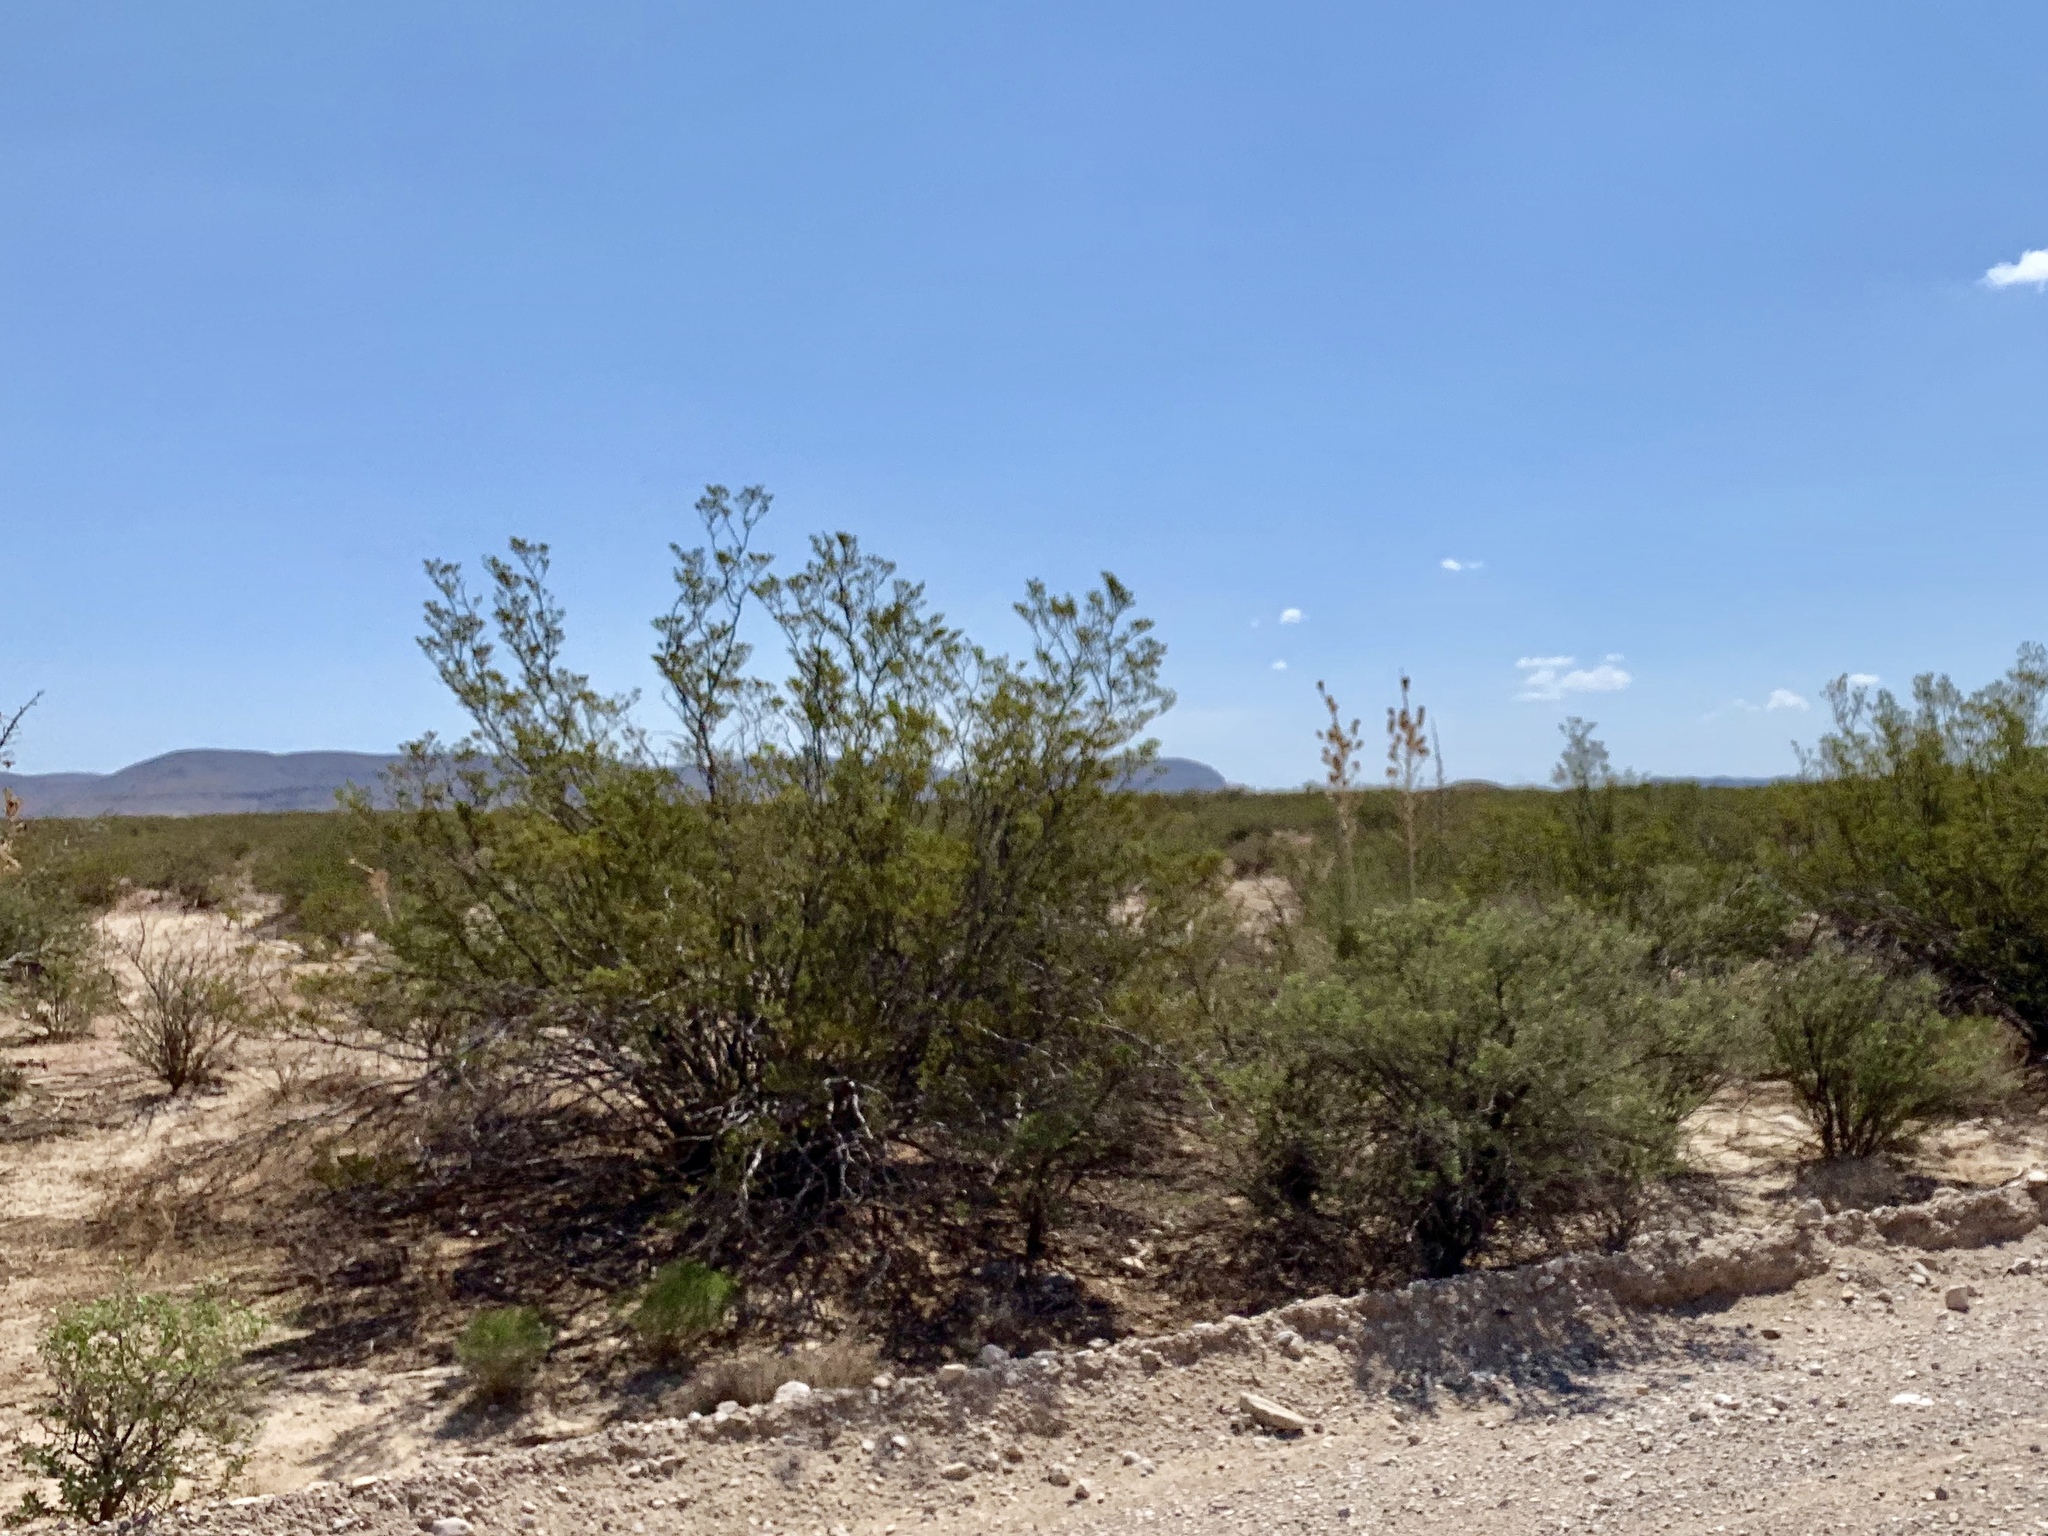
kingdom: Plantae
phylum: Tracheophyta
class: Magnoliopsida
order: Zygophyllales
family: Zygophyllaceae
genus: Larrea
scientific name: Larrea tridentata
